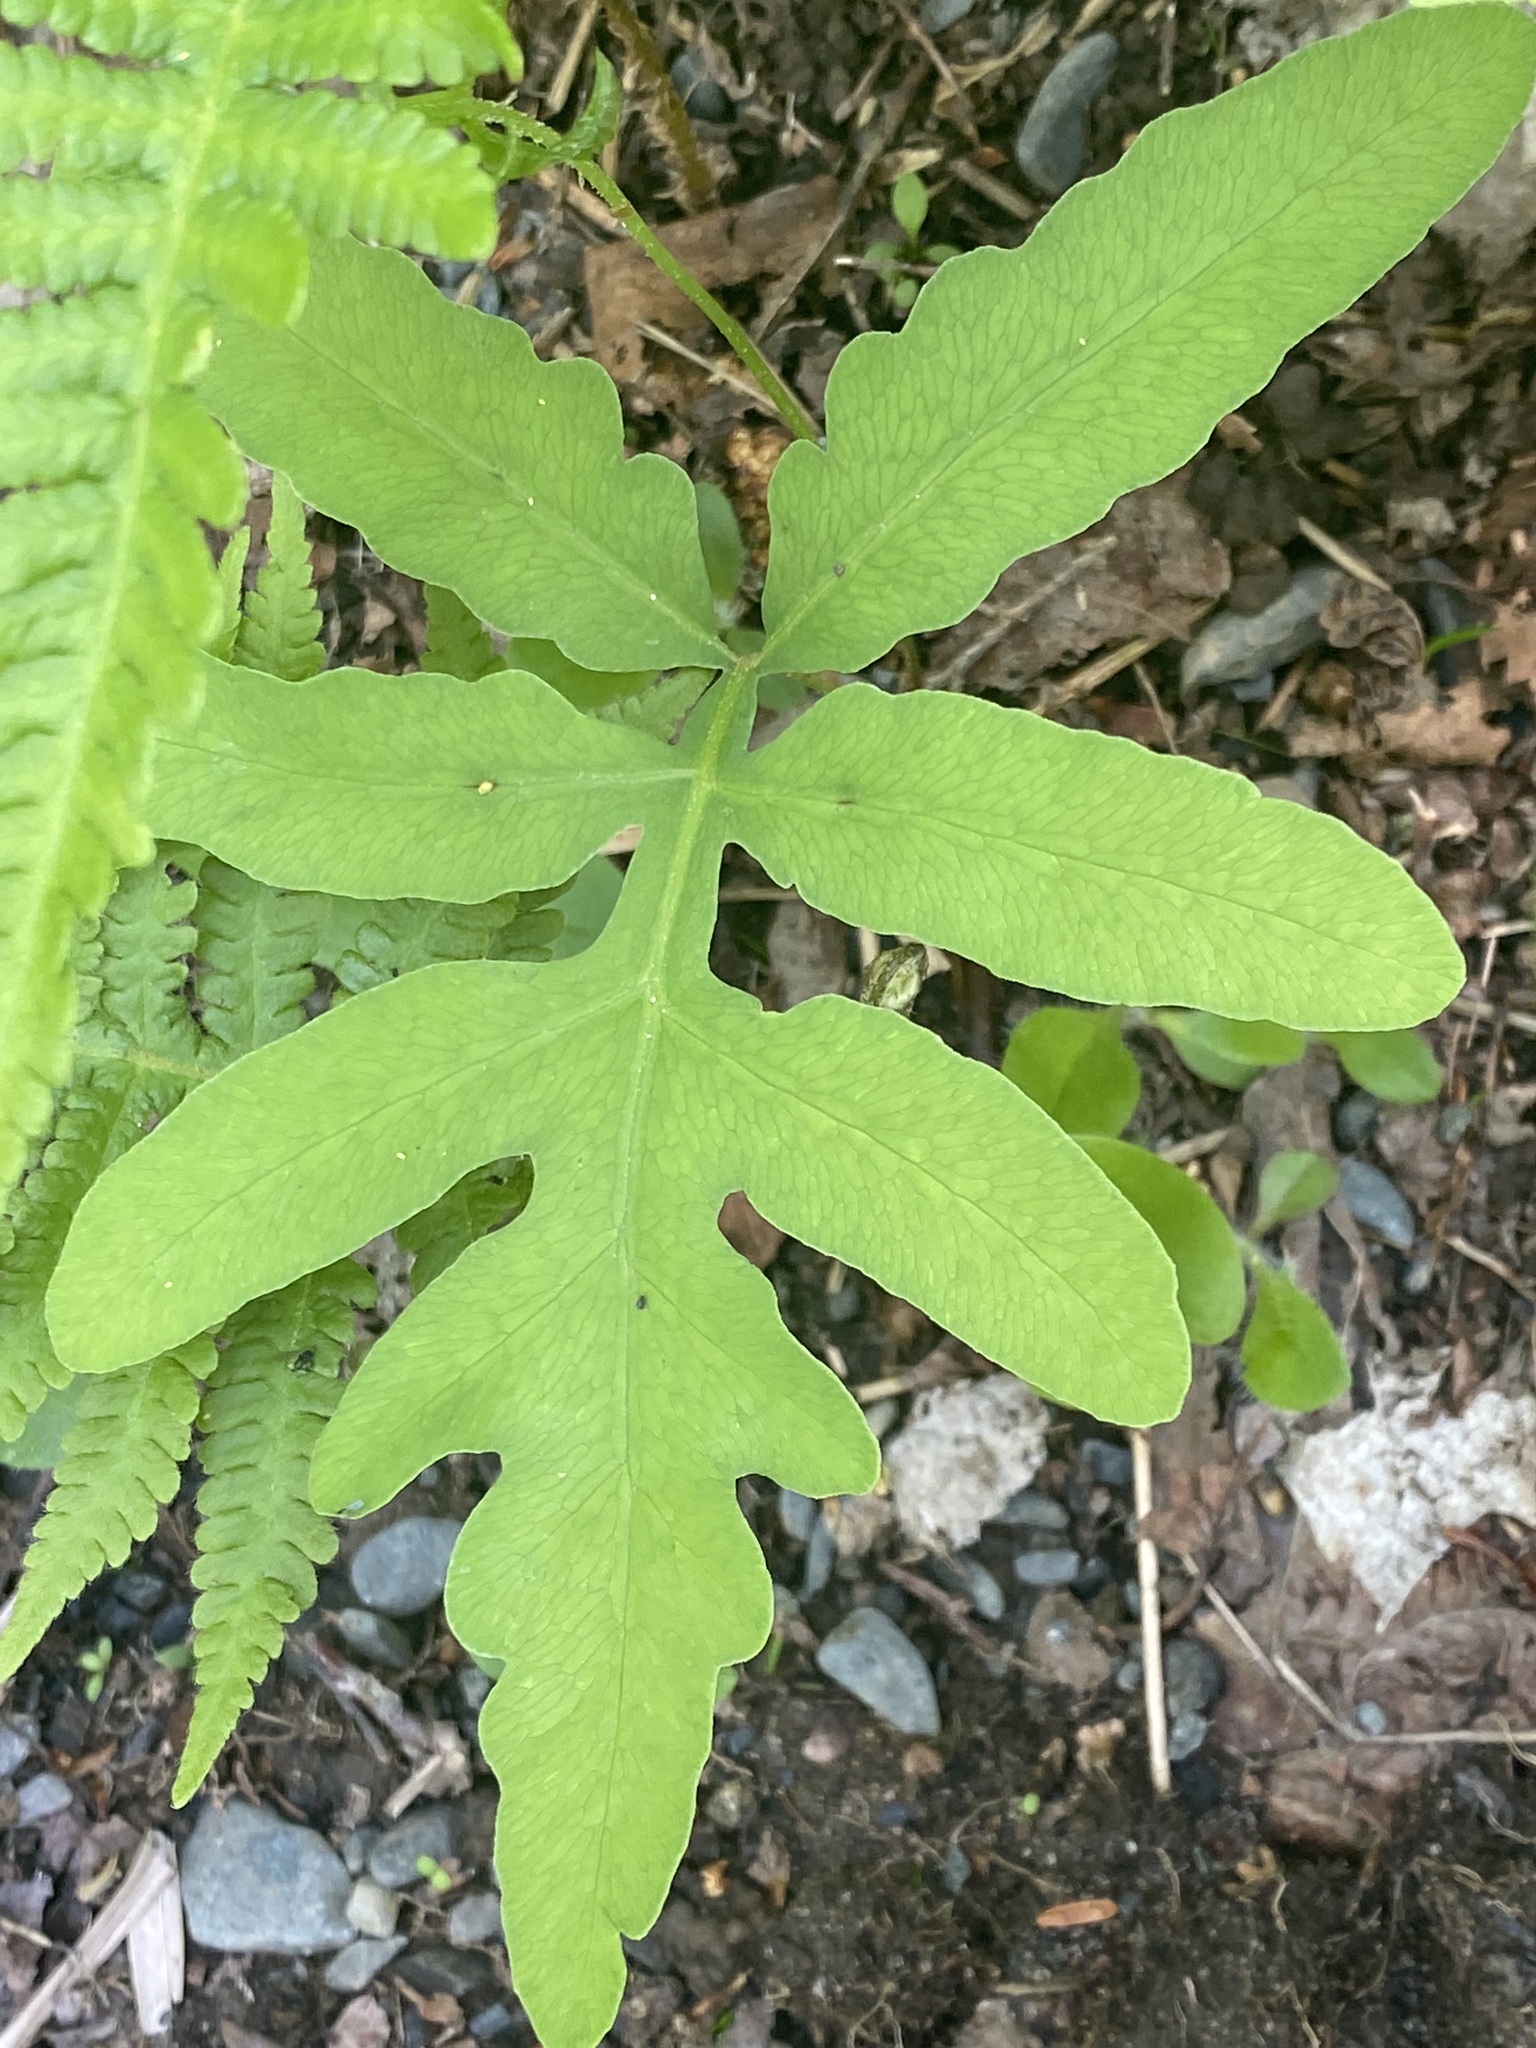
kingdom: Plantae
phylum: Tracheophyta
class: Polypodiopsida
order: Polypodiales
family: Onocleaceae
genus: Onoclea
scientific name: Onoclea sensibilis
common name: Sensitive fern
